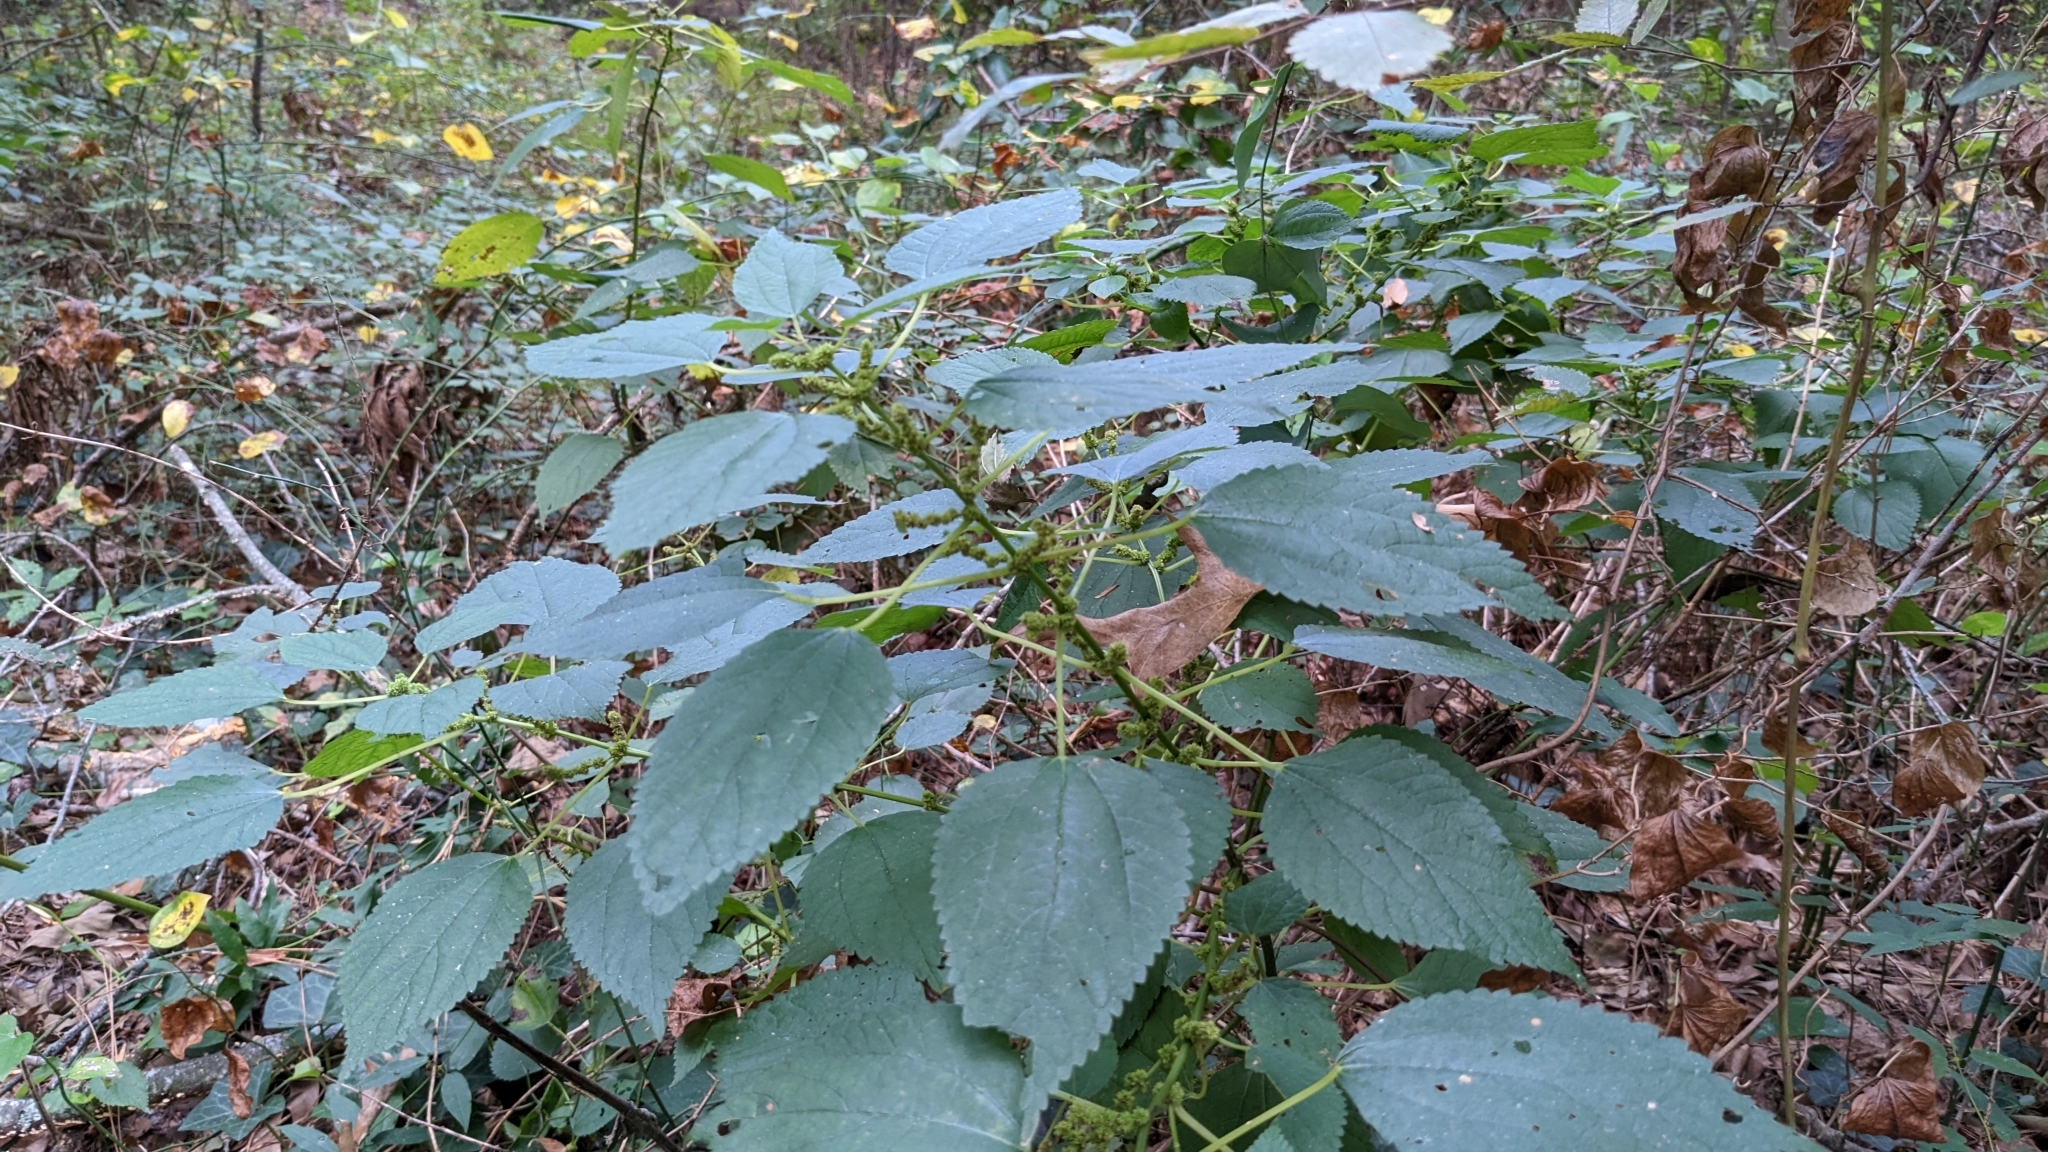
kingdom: Plantae
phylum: Tracheophyta
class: Magnoliopsida
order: Rosales
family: Urticaceae
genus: Boehmeria
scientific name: Boehmeria cylindrica
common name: Bog-hemp
